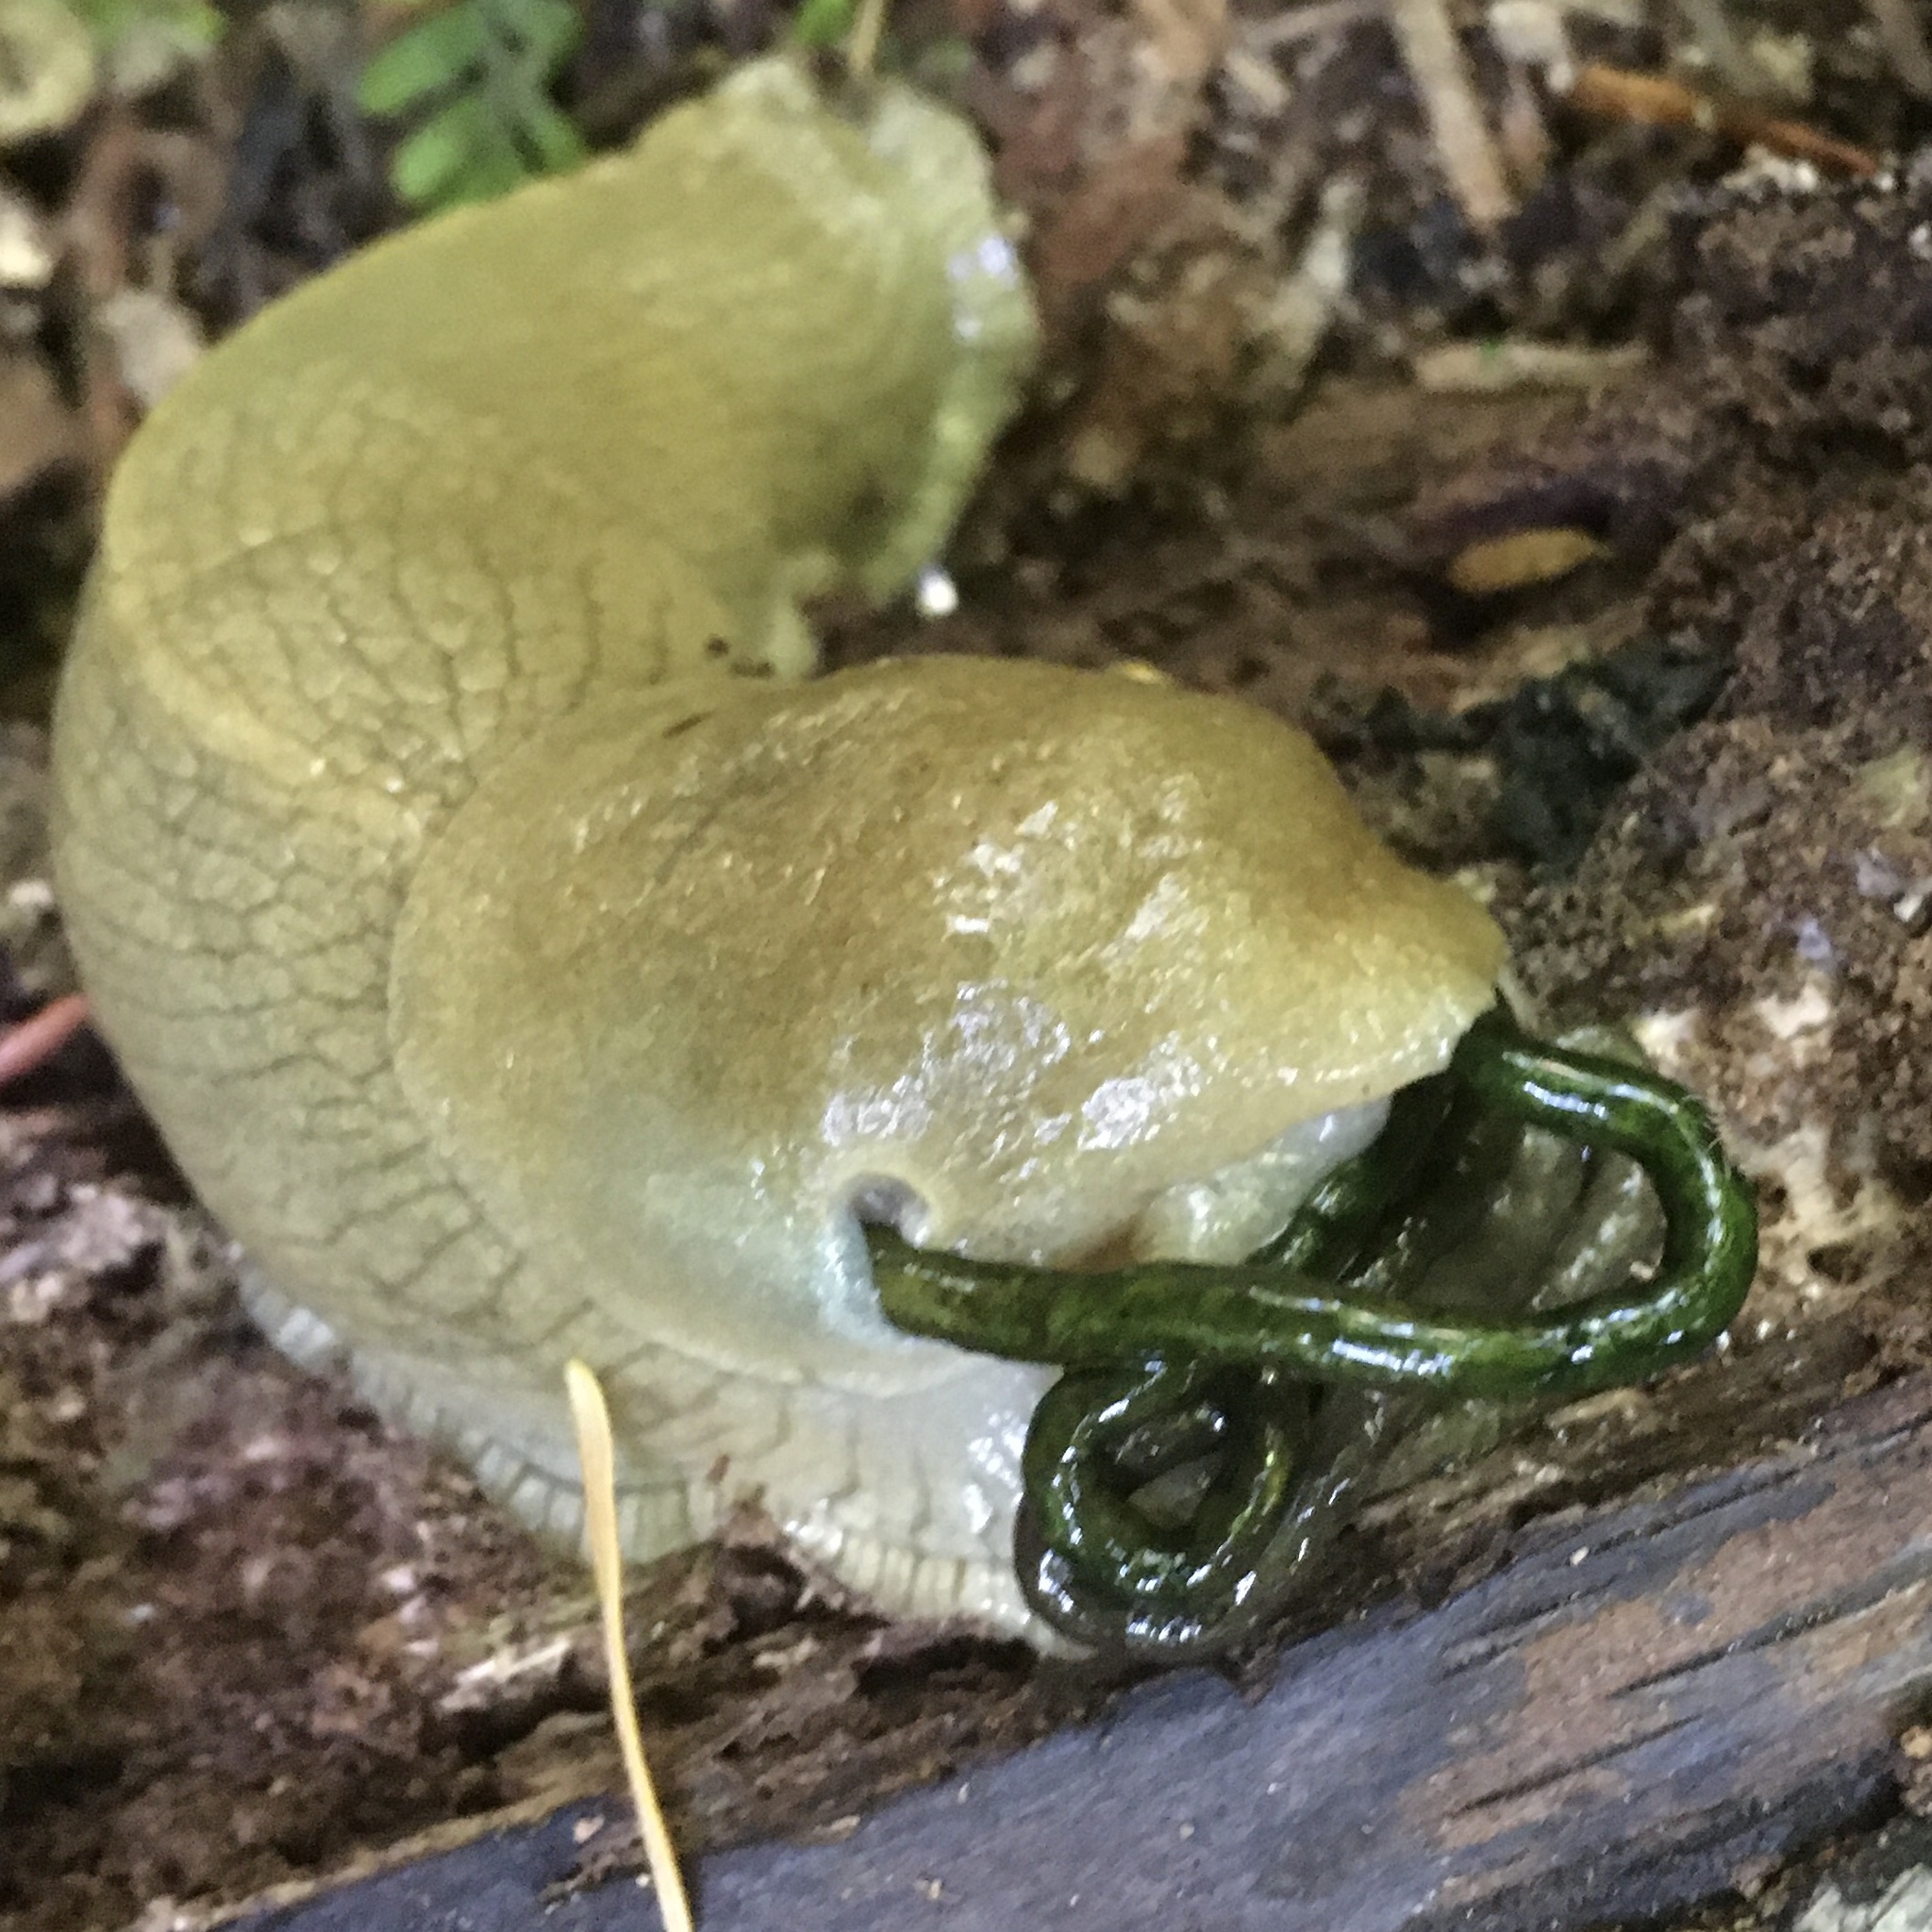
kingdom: Animalia
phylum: Mollusca
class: Gastropoda
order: Stylommatophora
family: Ariolimacidae
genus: Ariolimax
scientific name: Ariolimax columbianus
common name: Pacific banana slug
